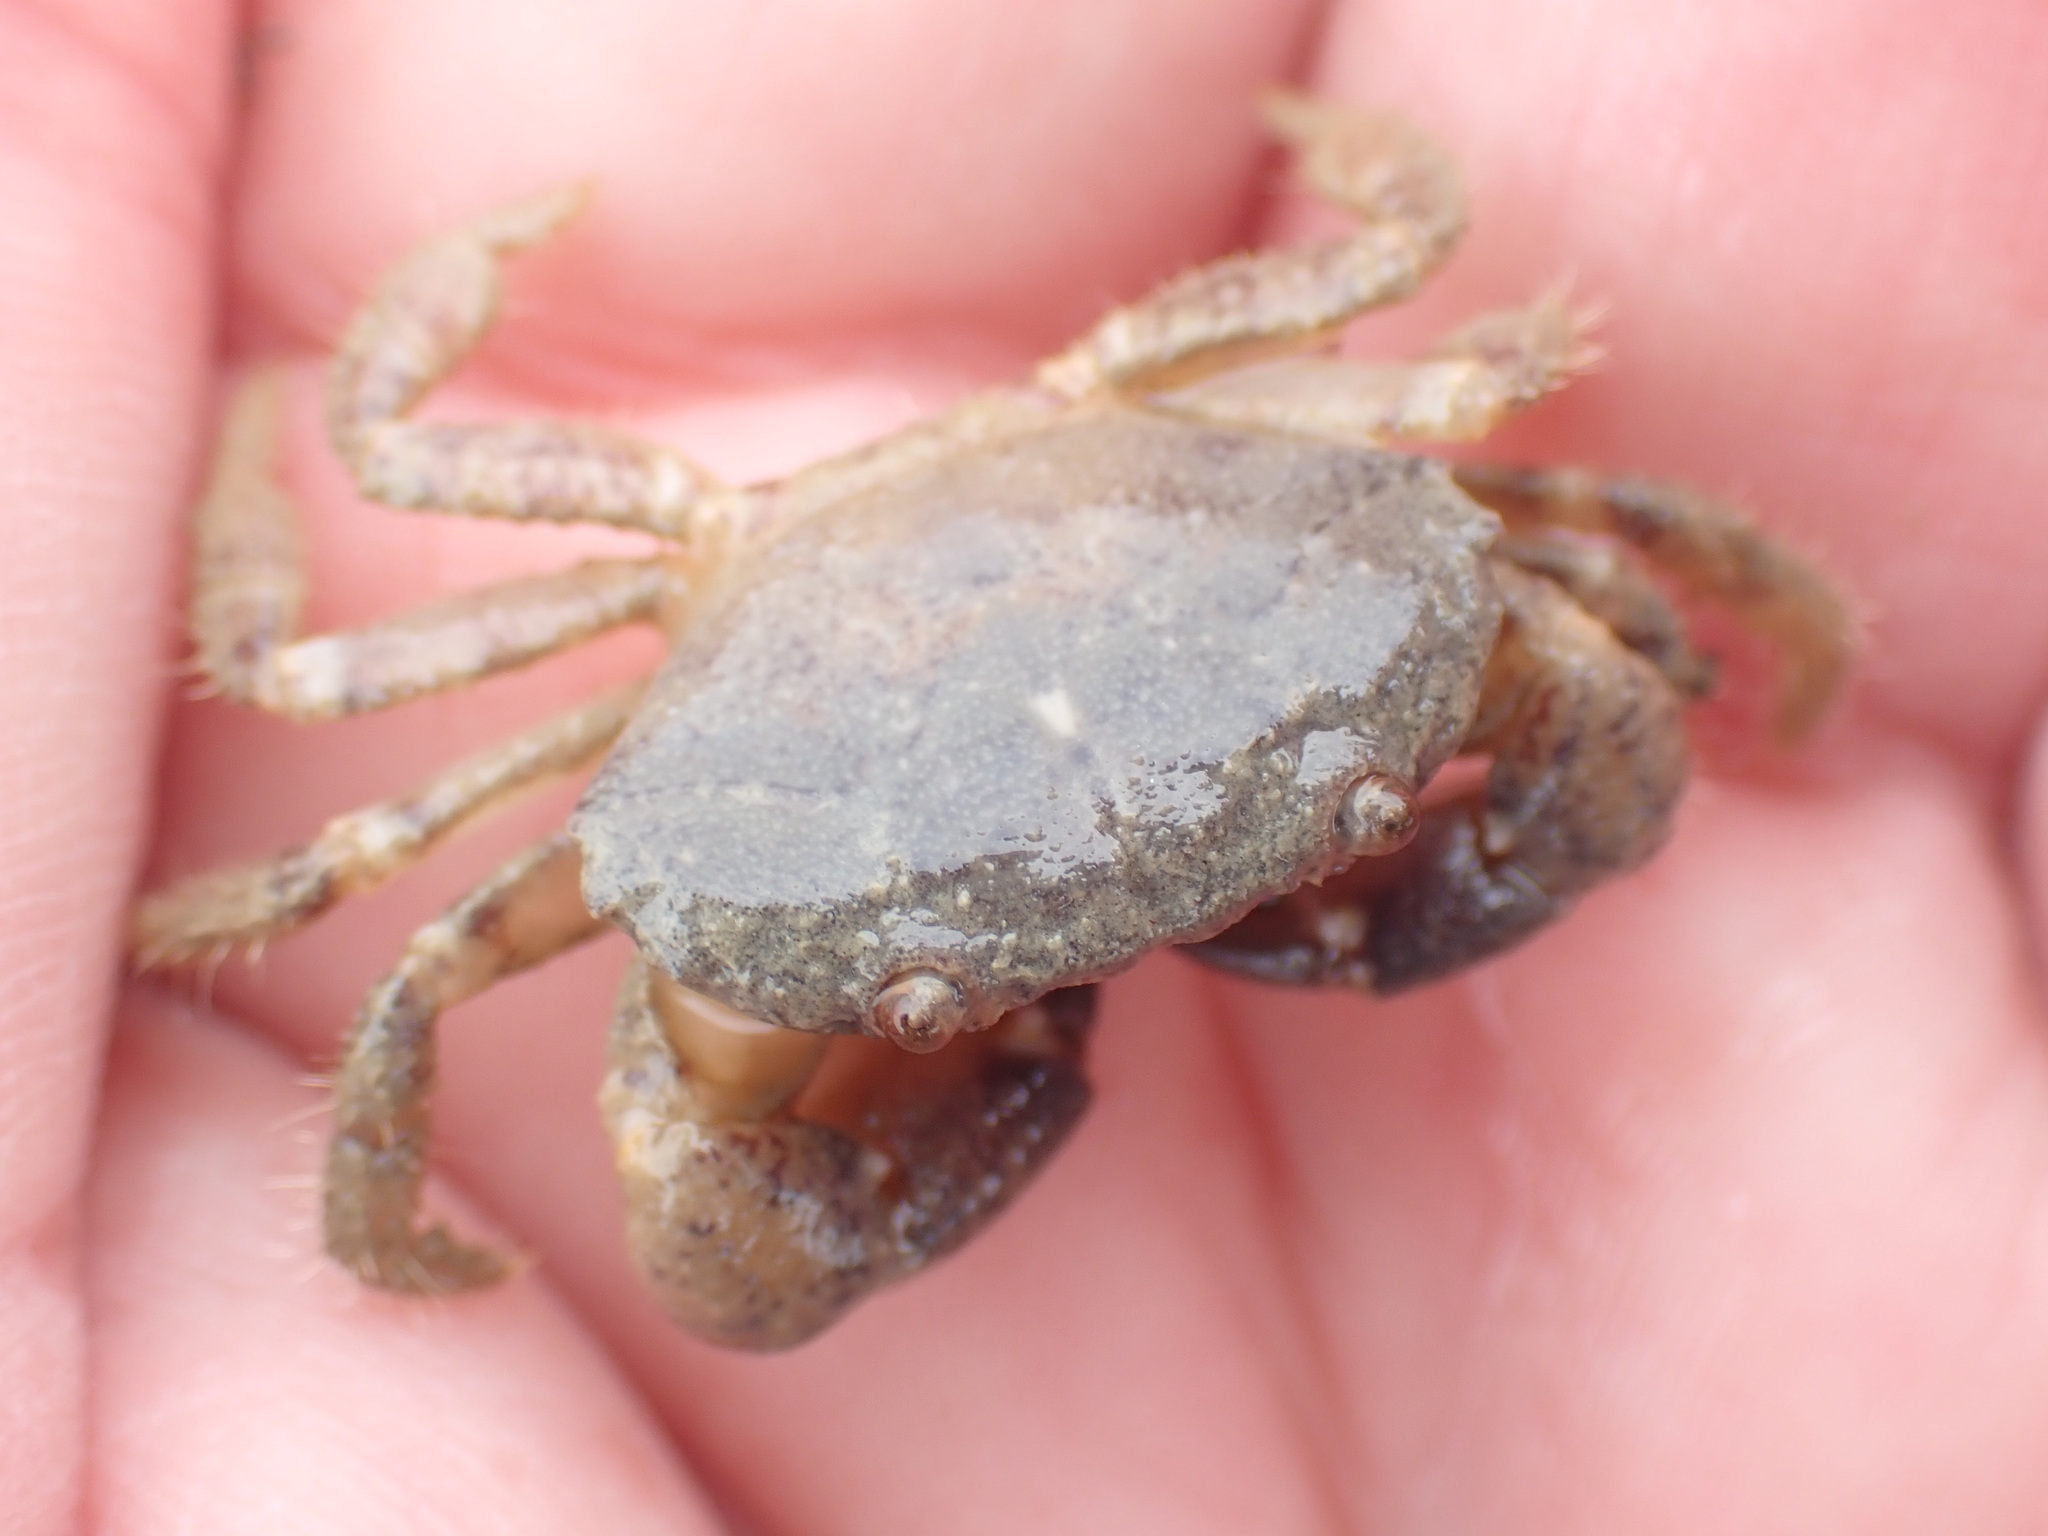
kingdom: Animalia
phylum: Arthropoda
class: Malacostraca
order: Decapoda
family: Oziidae
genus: Ozius
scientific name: Ozius deplanatus
